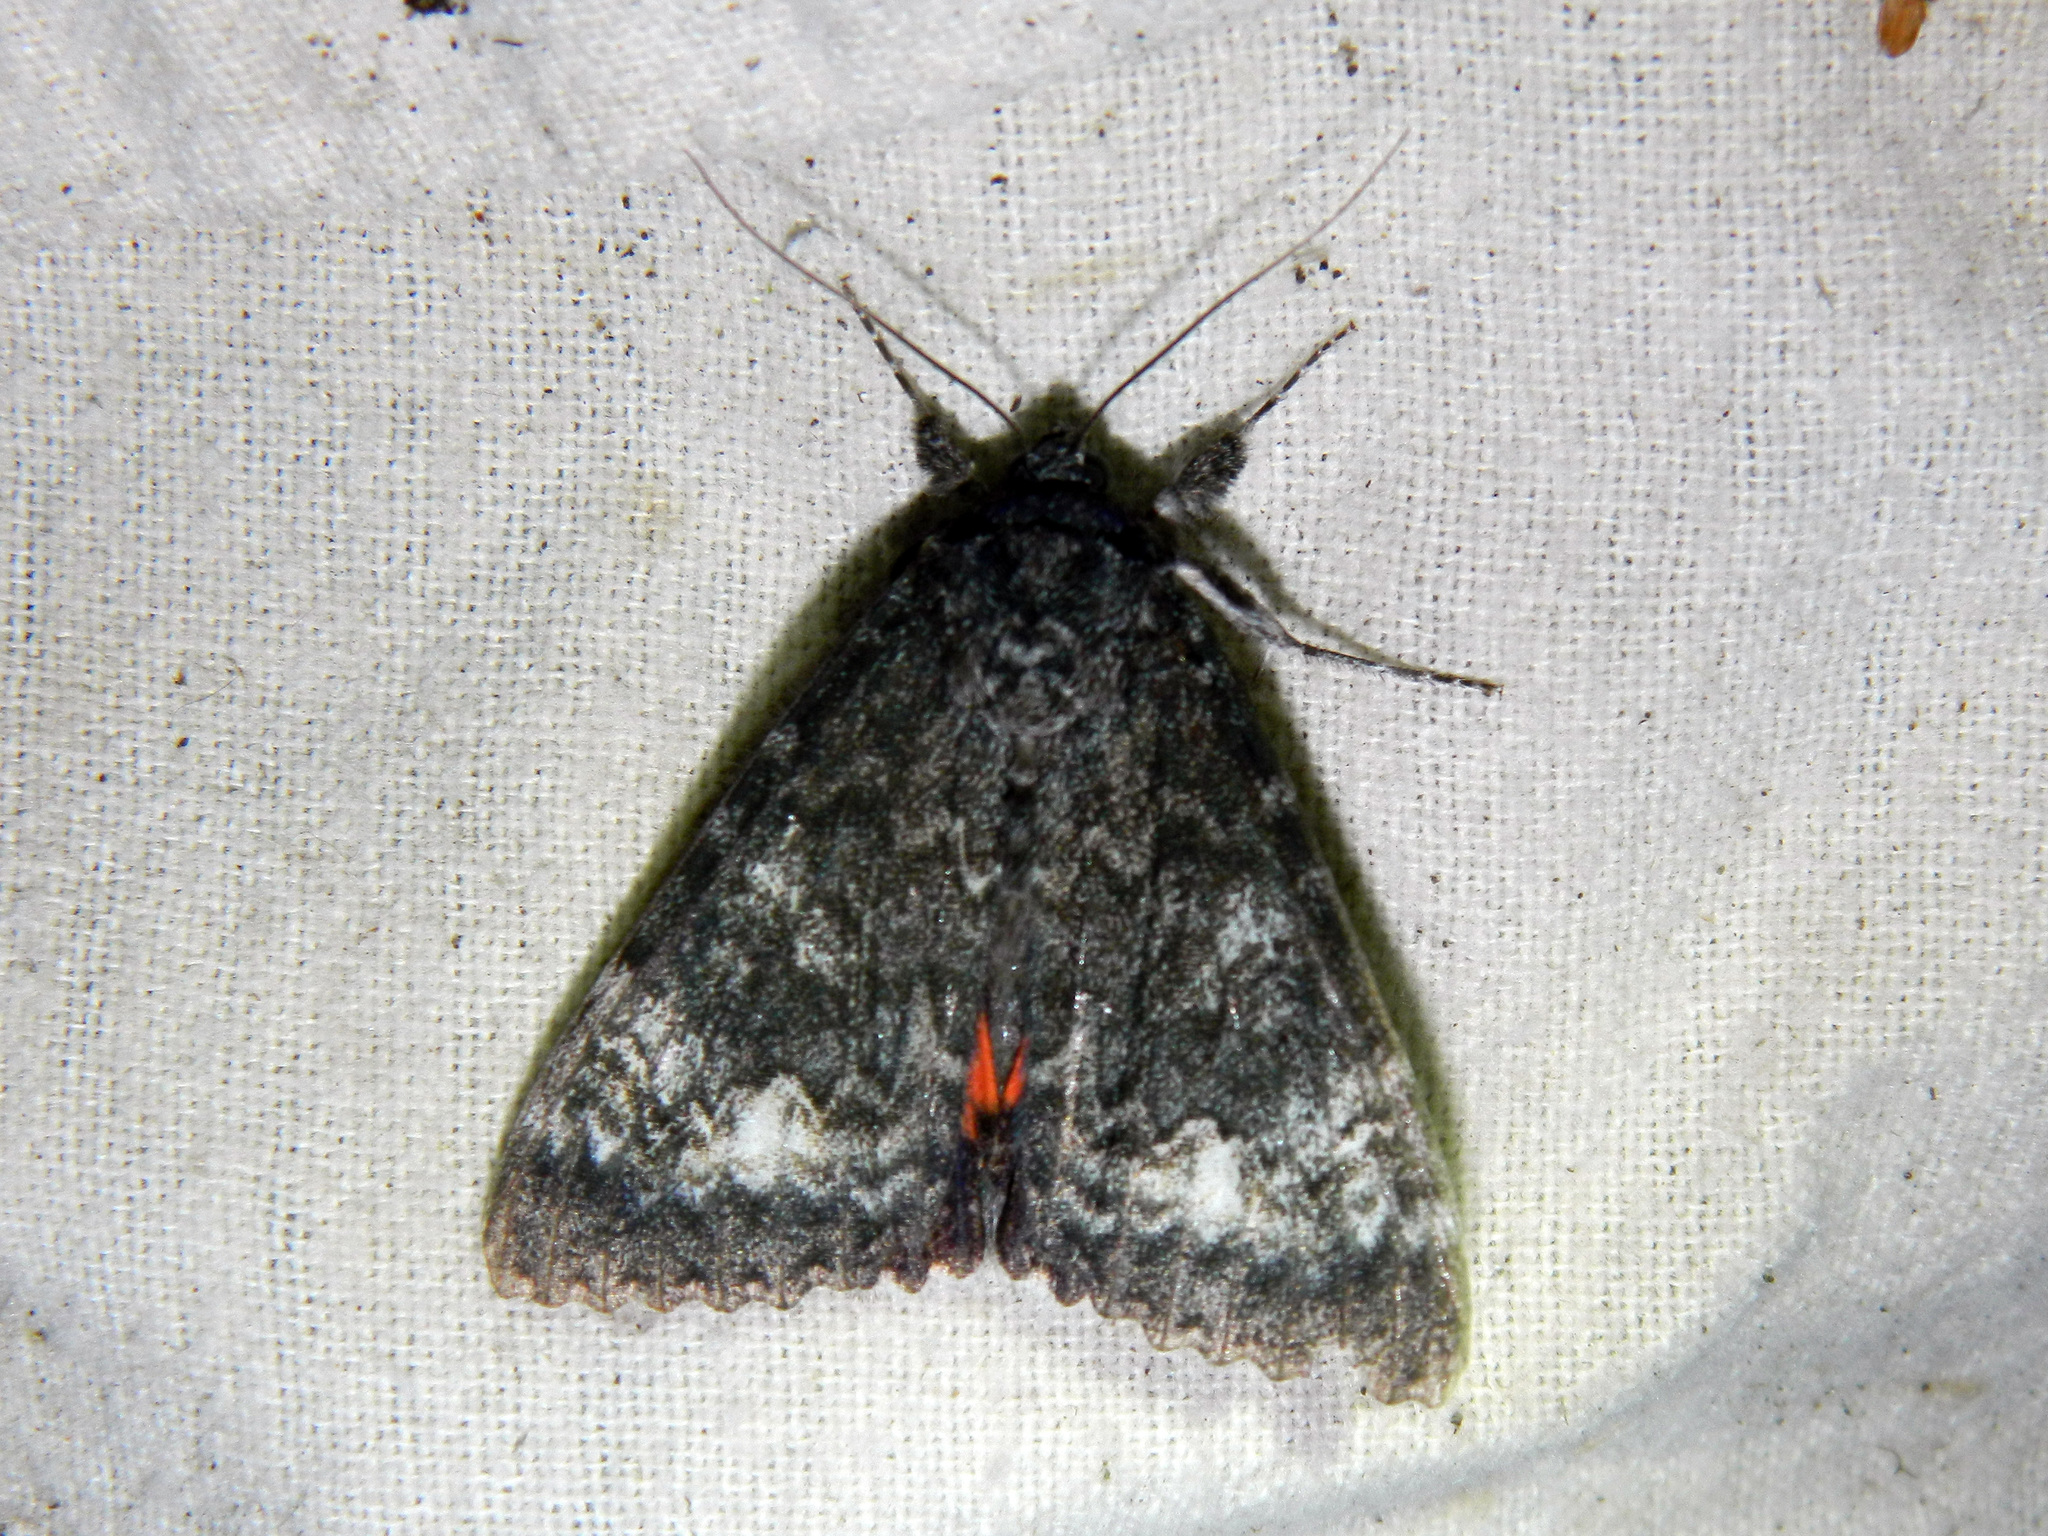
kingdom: Animalia
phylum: Arthropoda
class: Insecta
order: Lepidoptera
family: Erebidae
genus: Catocala
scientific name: Catocala briseis
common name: Briseis underwing
